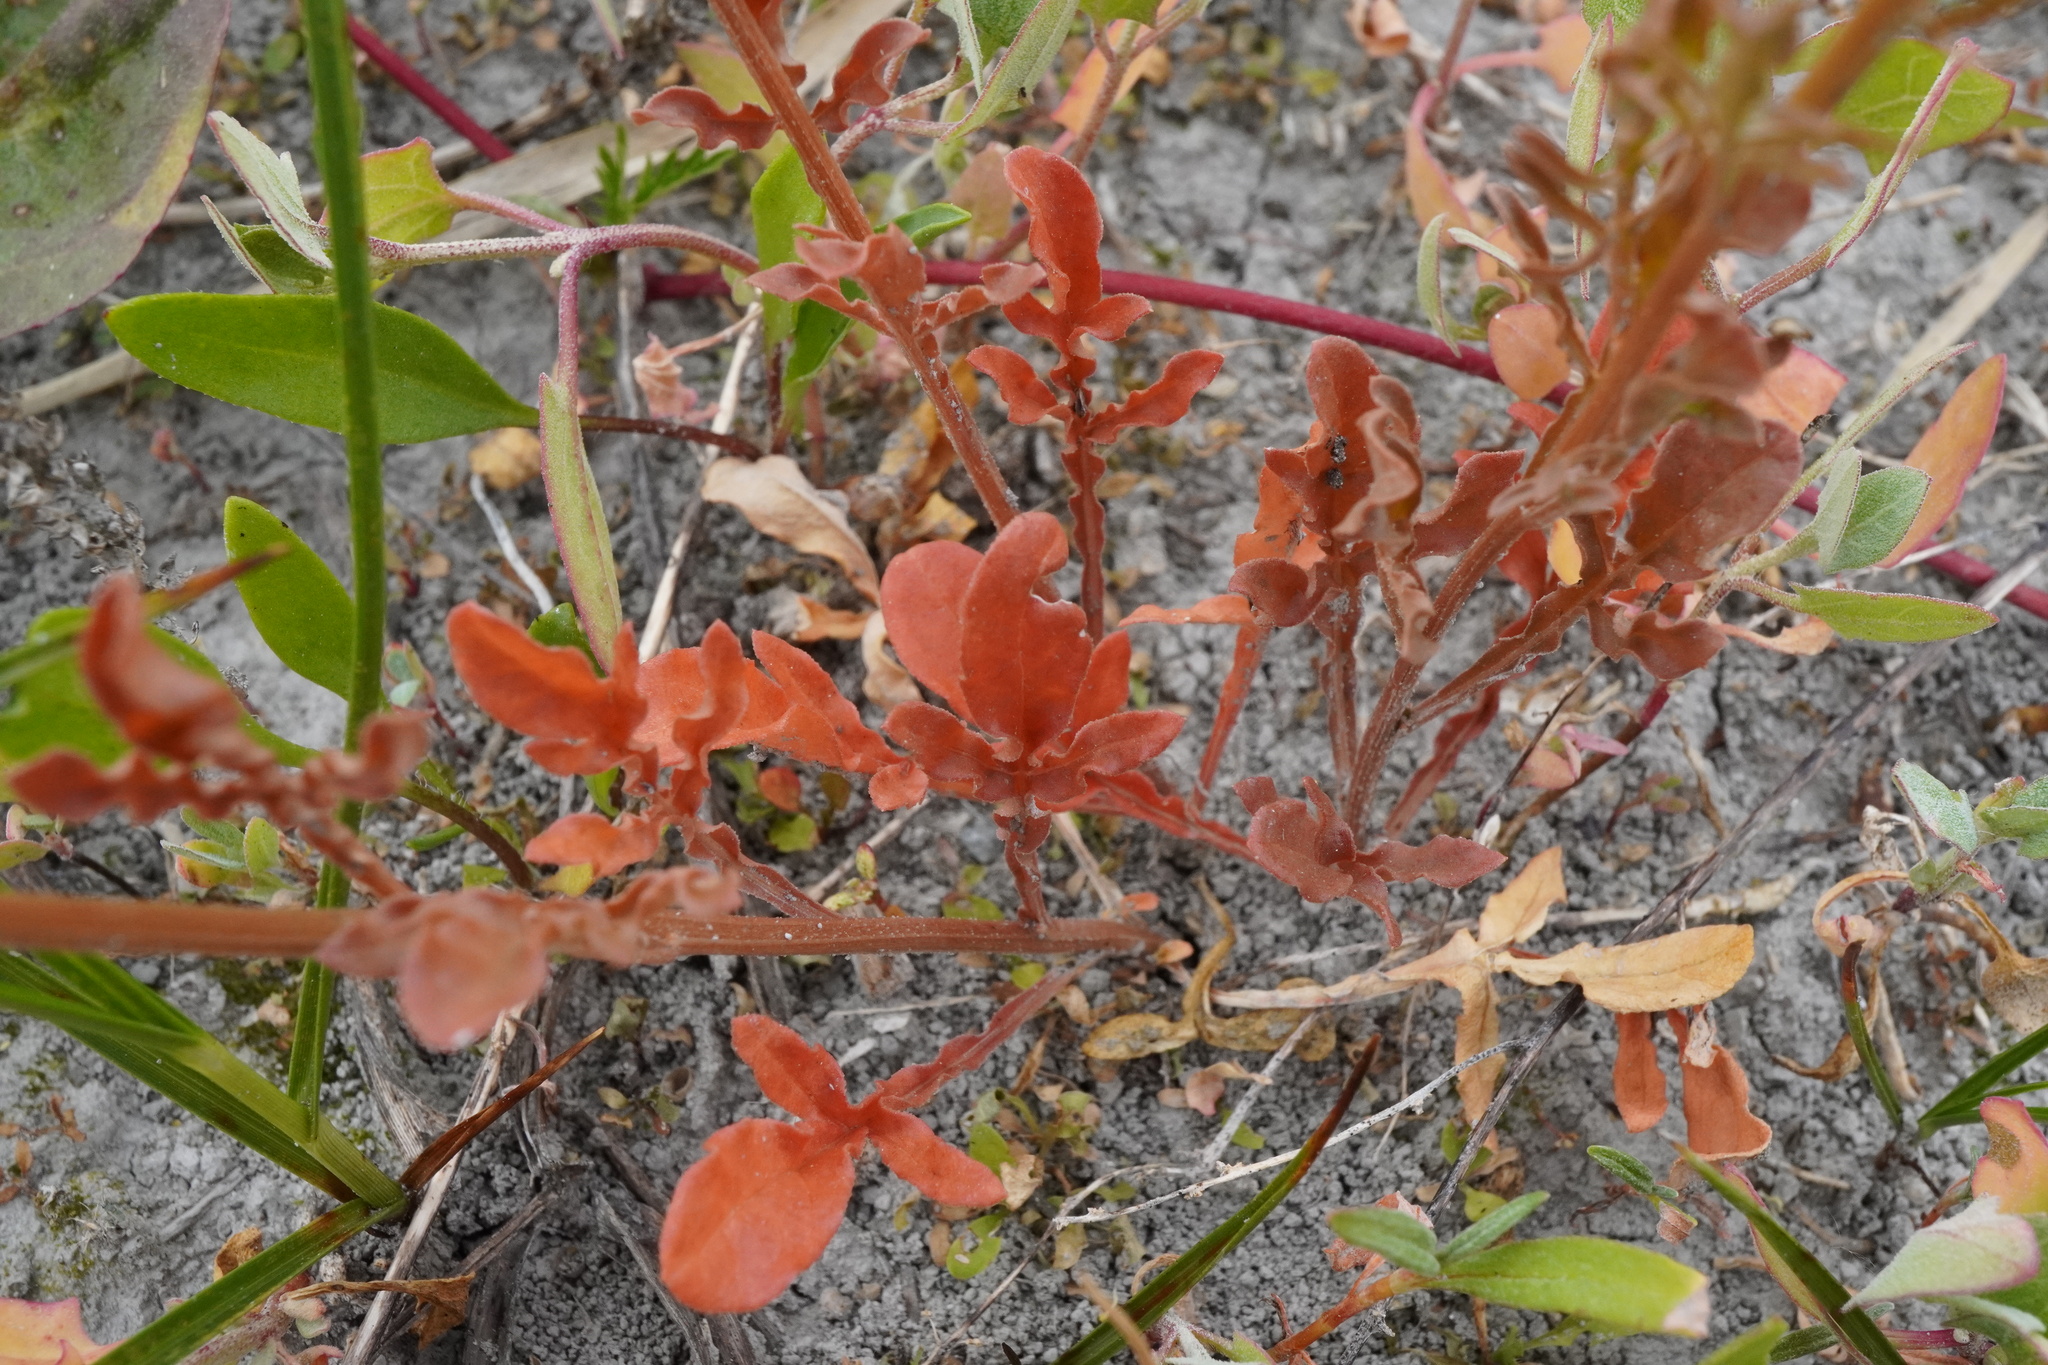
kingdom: Plantae
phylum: Tracheophyta
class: Magnoliopsida
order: Brassicales
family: Resedaceae
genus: Reseda
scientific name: Reseda lutea
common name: Wild mignonette
